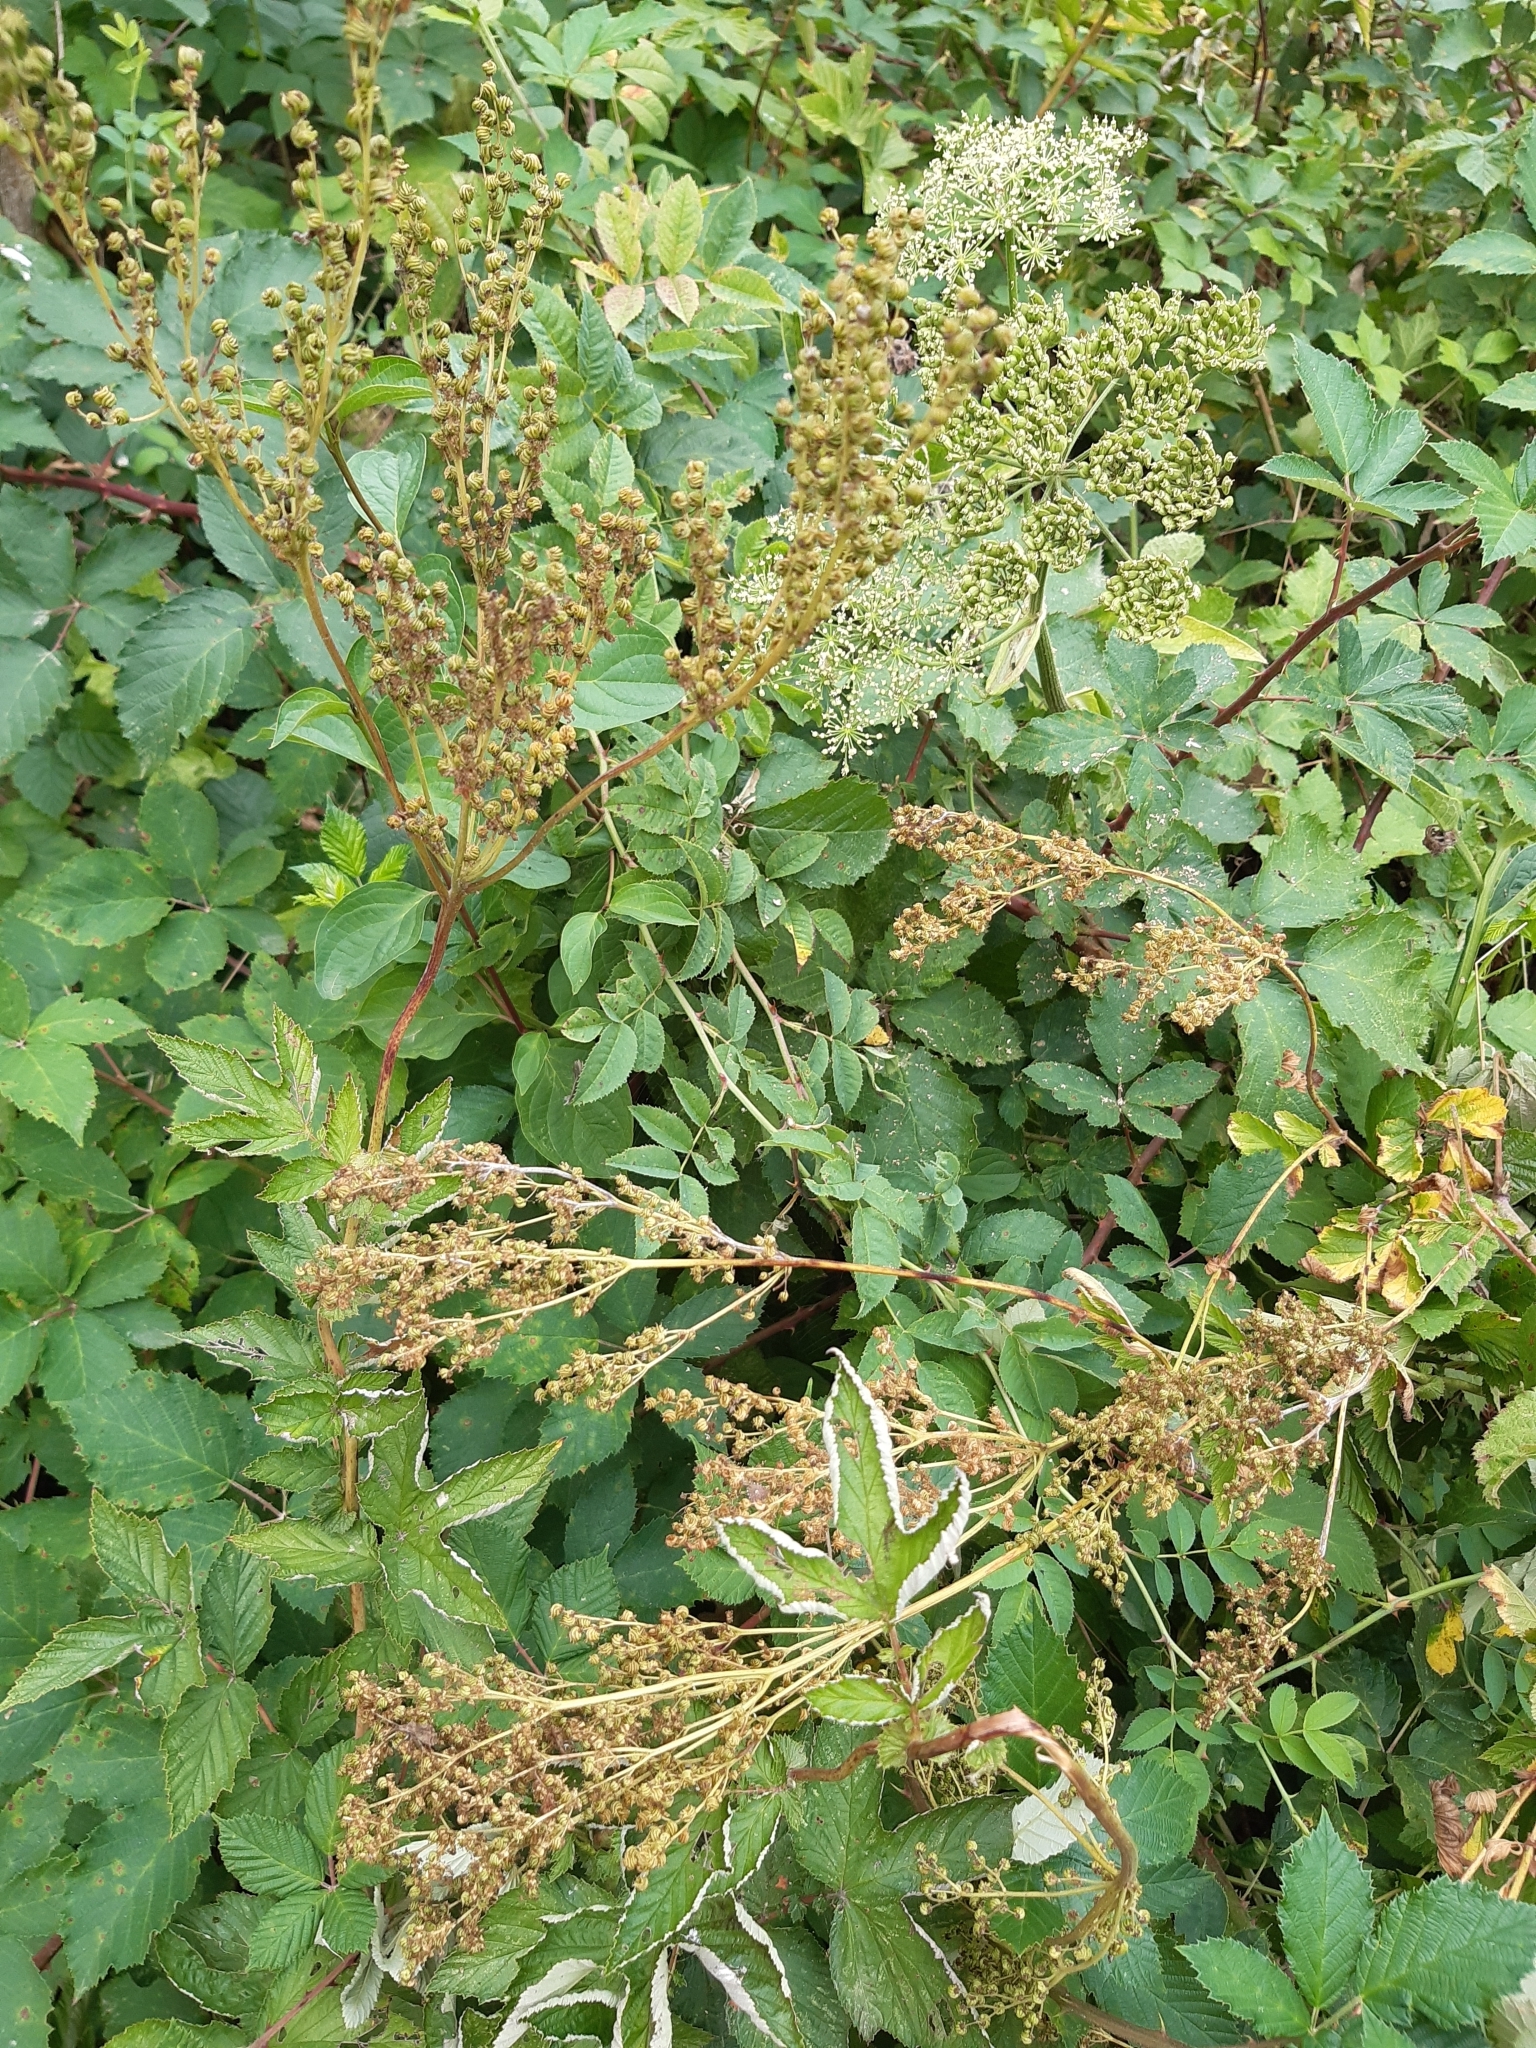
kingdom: Plantae
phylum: Tracheophyta
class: Magnoliopsida
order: Rosales
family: Rosaceae
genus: Filipendula
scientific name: Filipendula ulmaria
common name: Meadowsweet
